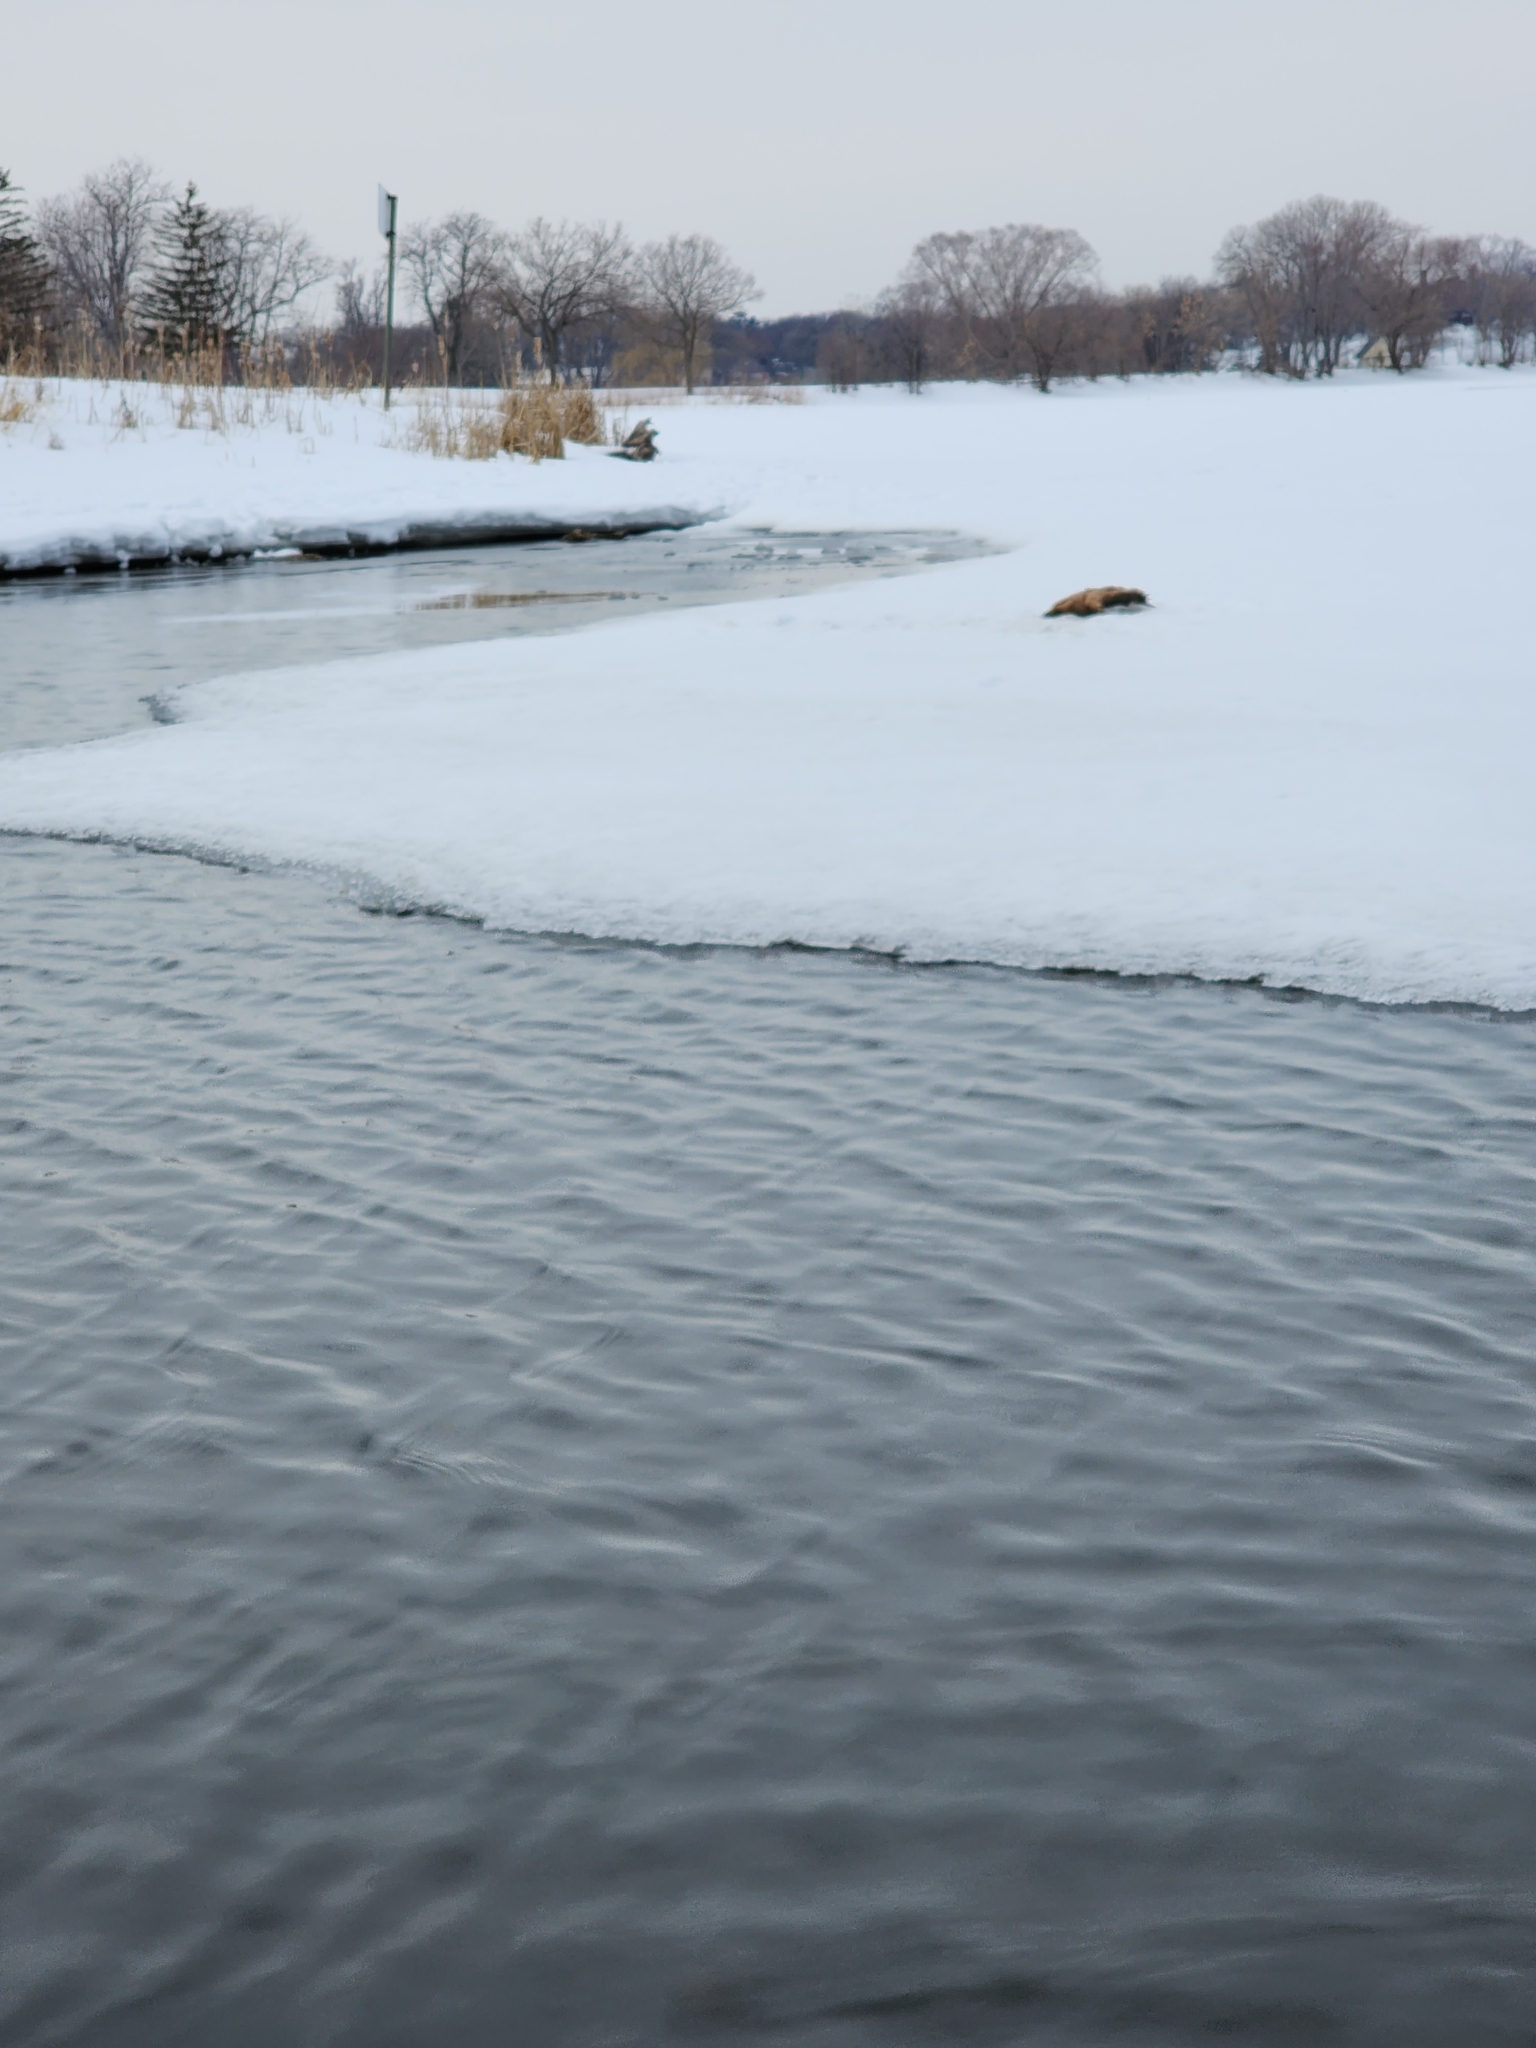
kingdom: Animalia
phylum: Chordata
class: Testudines
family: Chelydridae
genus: Chelydra
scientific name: Chelydra serpentina
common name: Common snapping turtle
